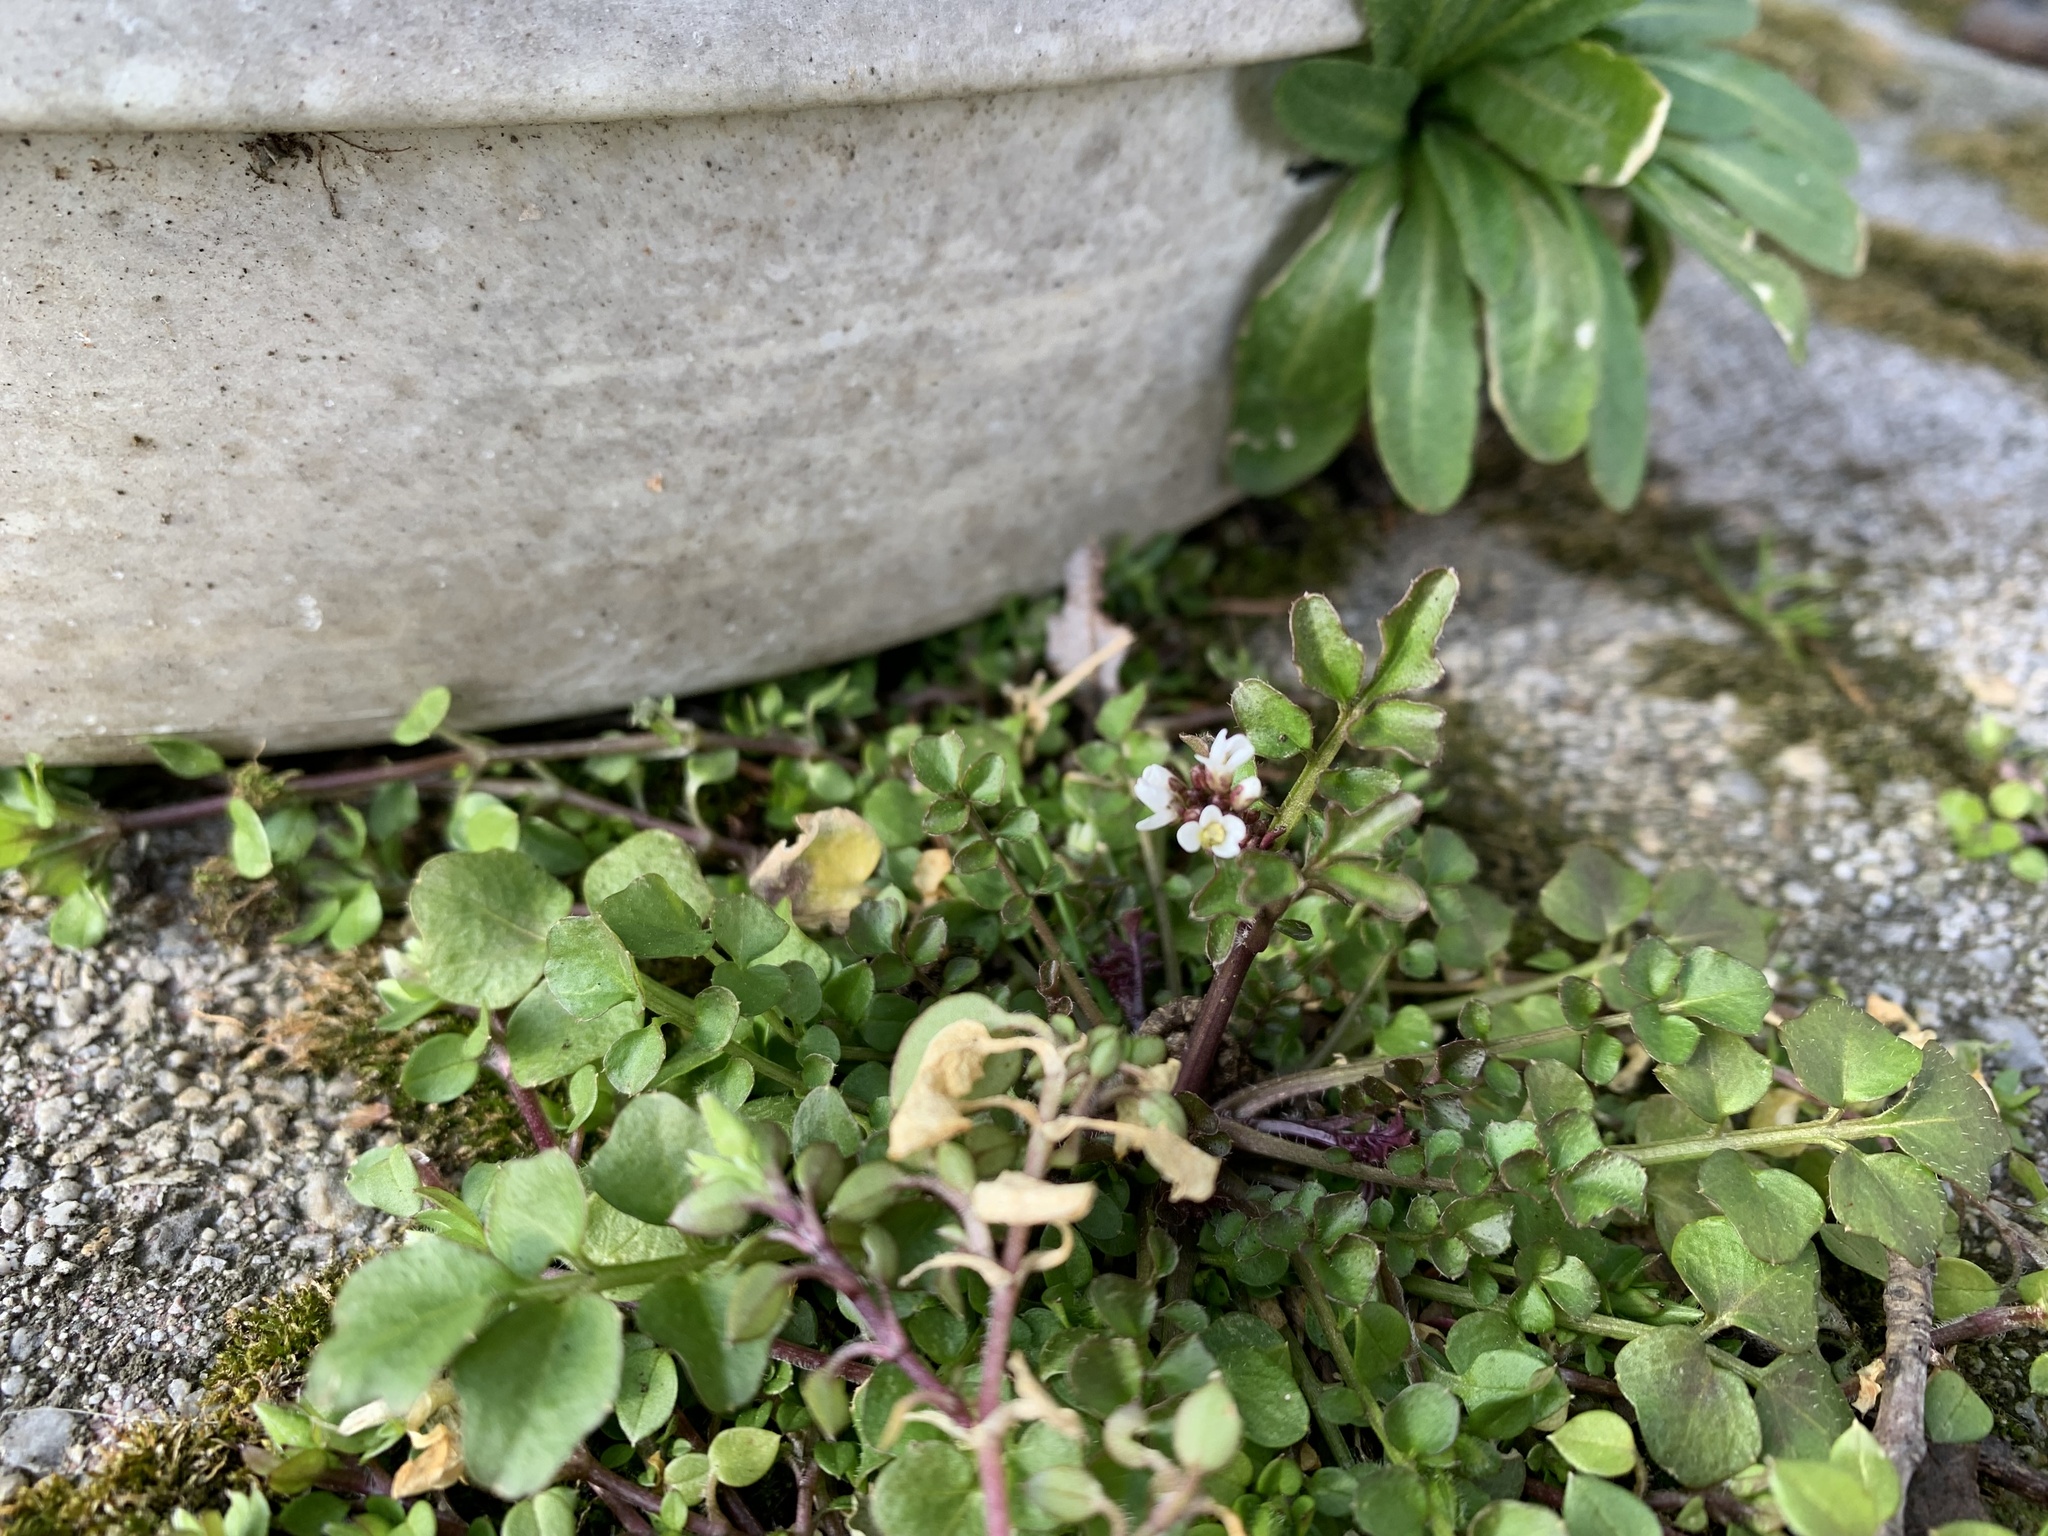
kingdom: Plantae
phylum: Tracheophyta
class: Magnoliopsida
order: Brassicales
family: Brassicaceae
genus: Cardamine
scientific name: Cardamine hirsuta
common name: Hairy bittercress
